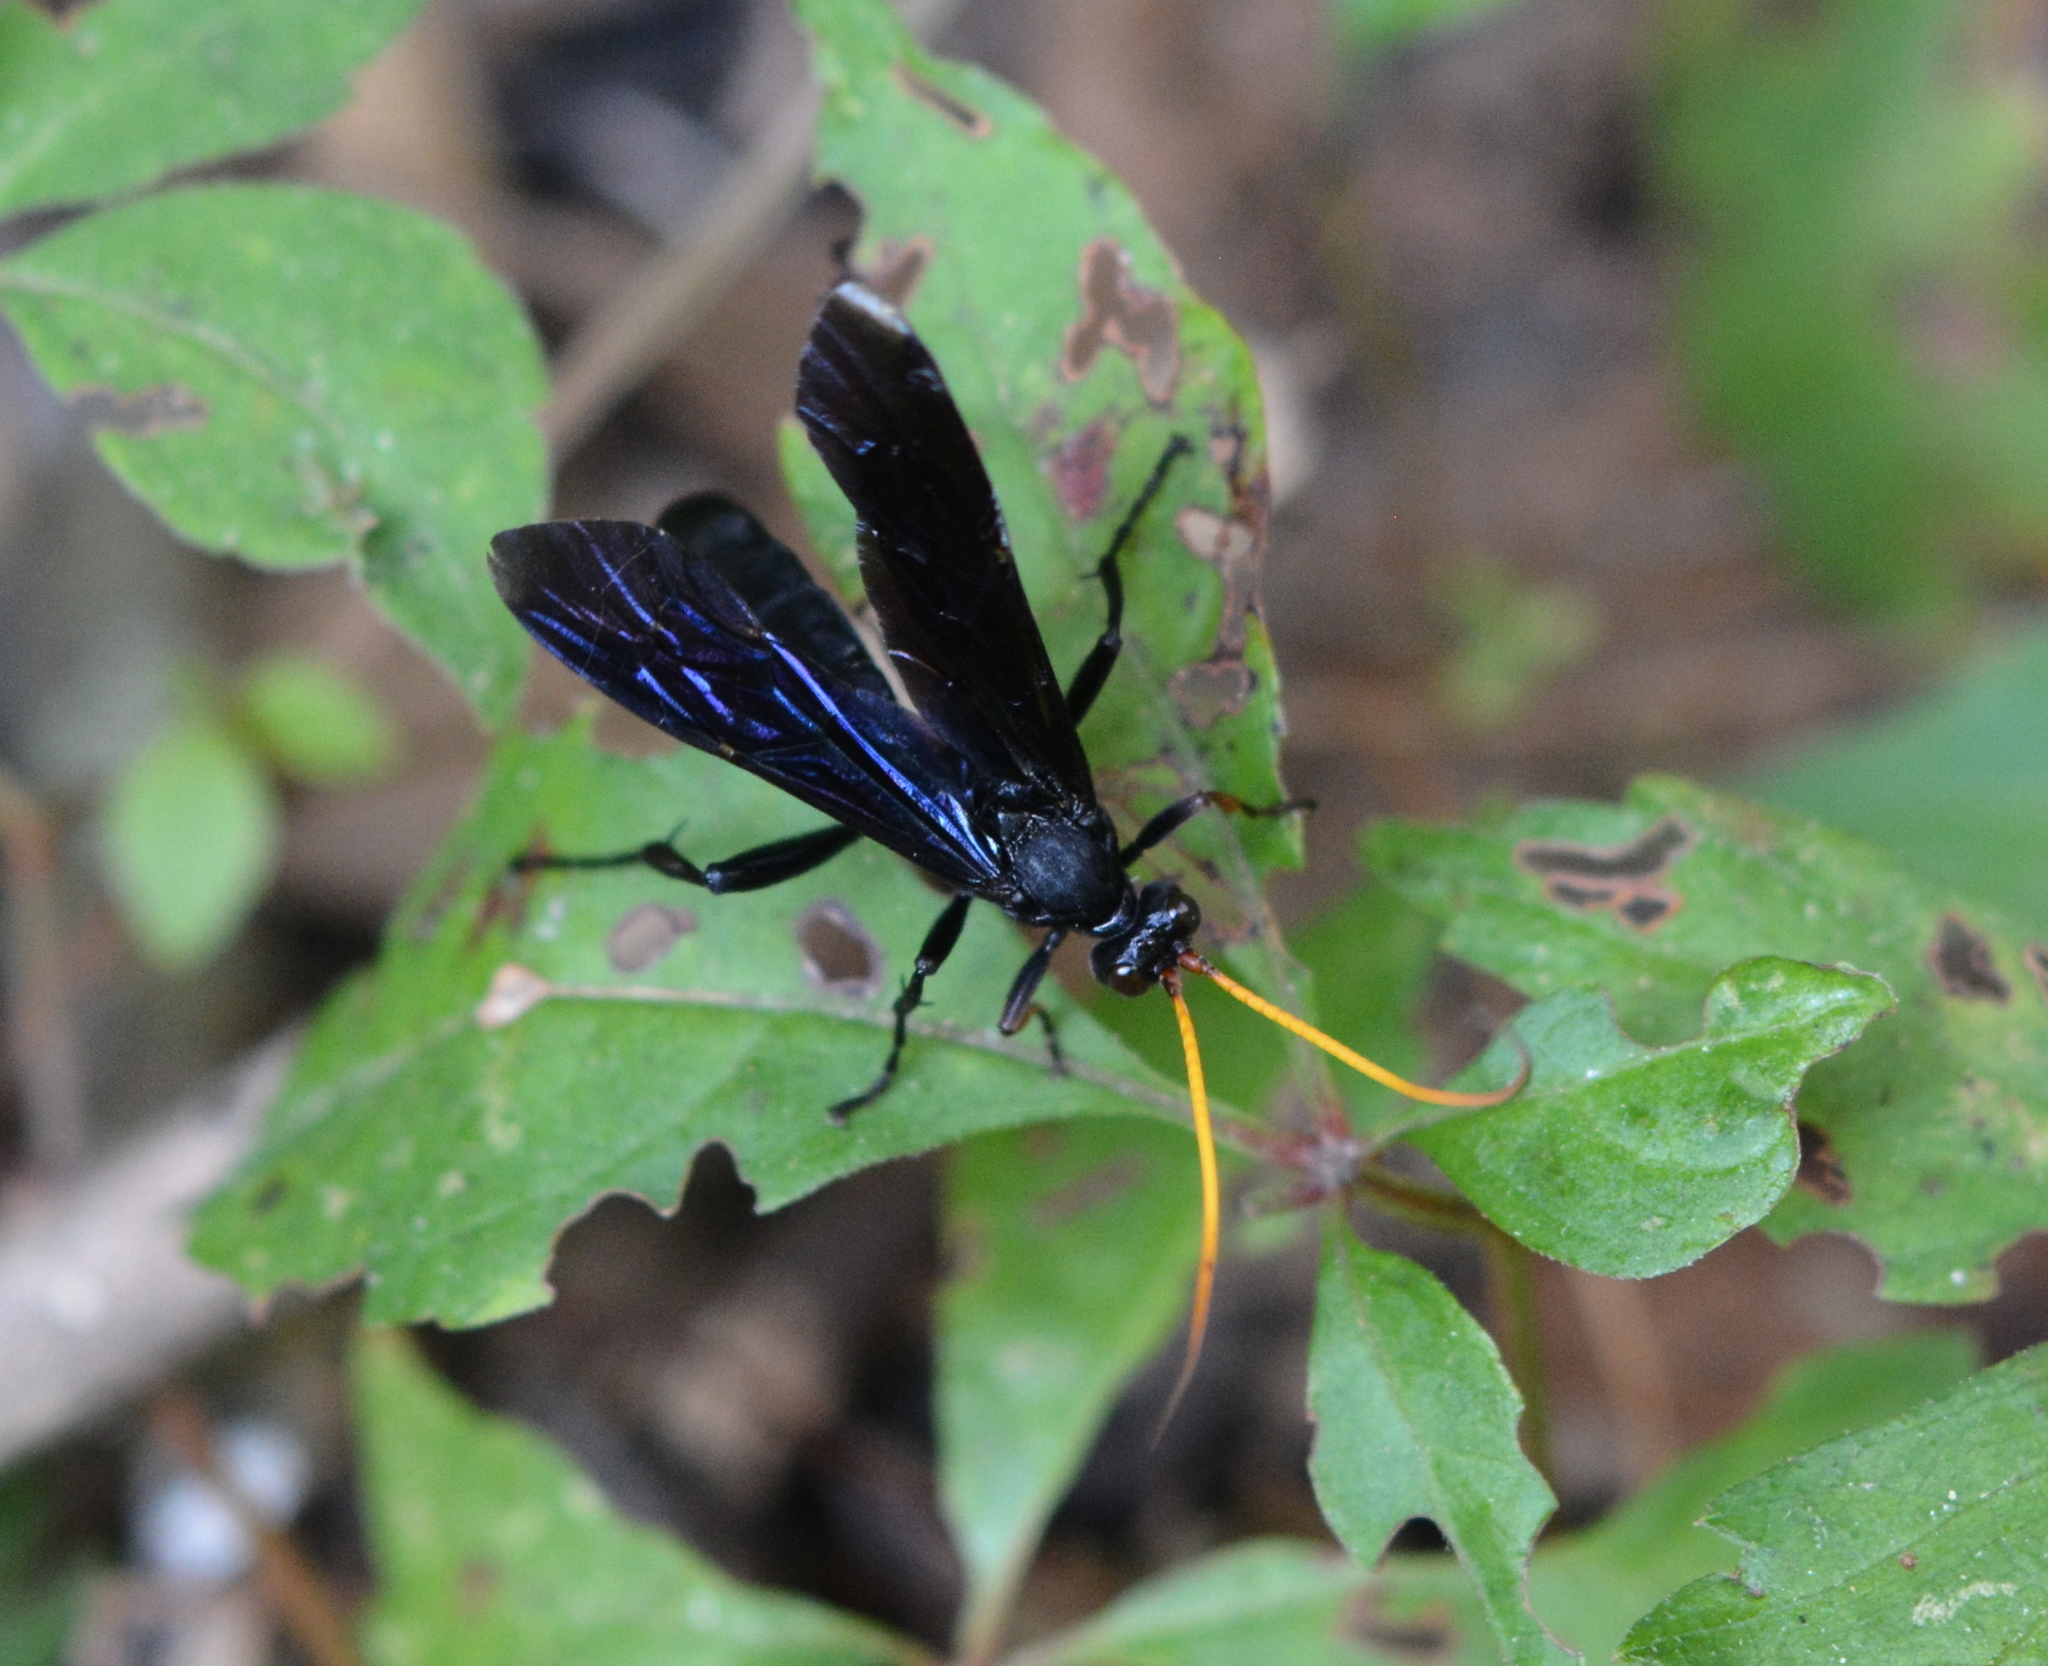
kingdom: Animalia
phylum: Arthropoda
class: Insecta
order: Hymenoptera
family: Ichneumonidae
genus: Gnamptopelta
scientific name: Gnamptopelta obsidianator
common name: Bent-shielded besieger wasp
